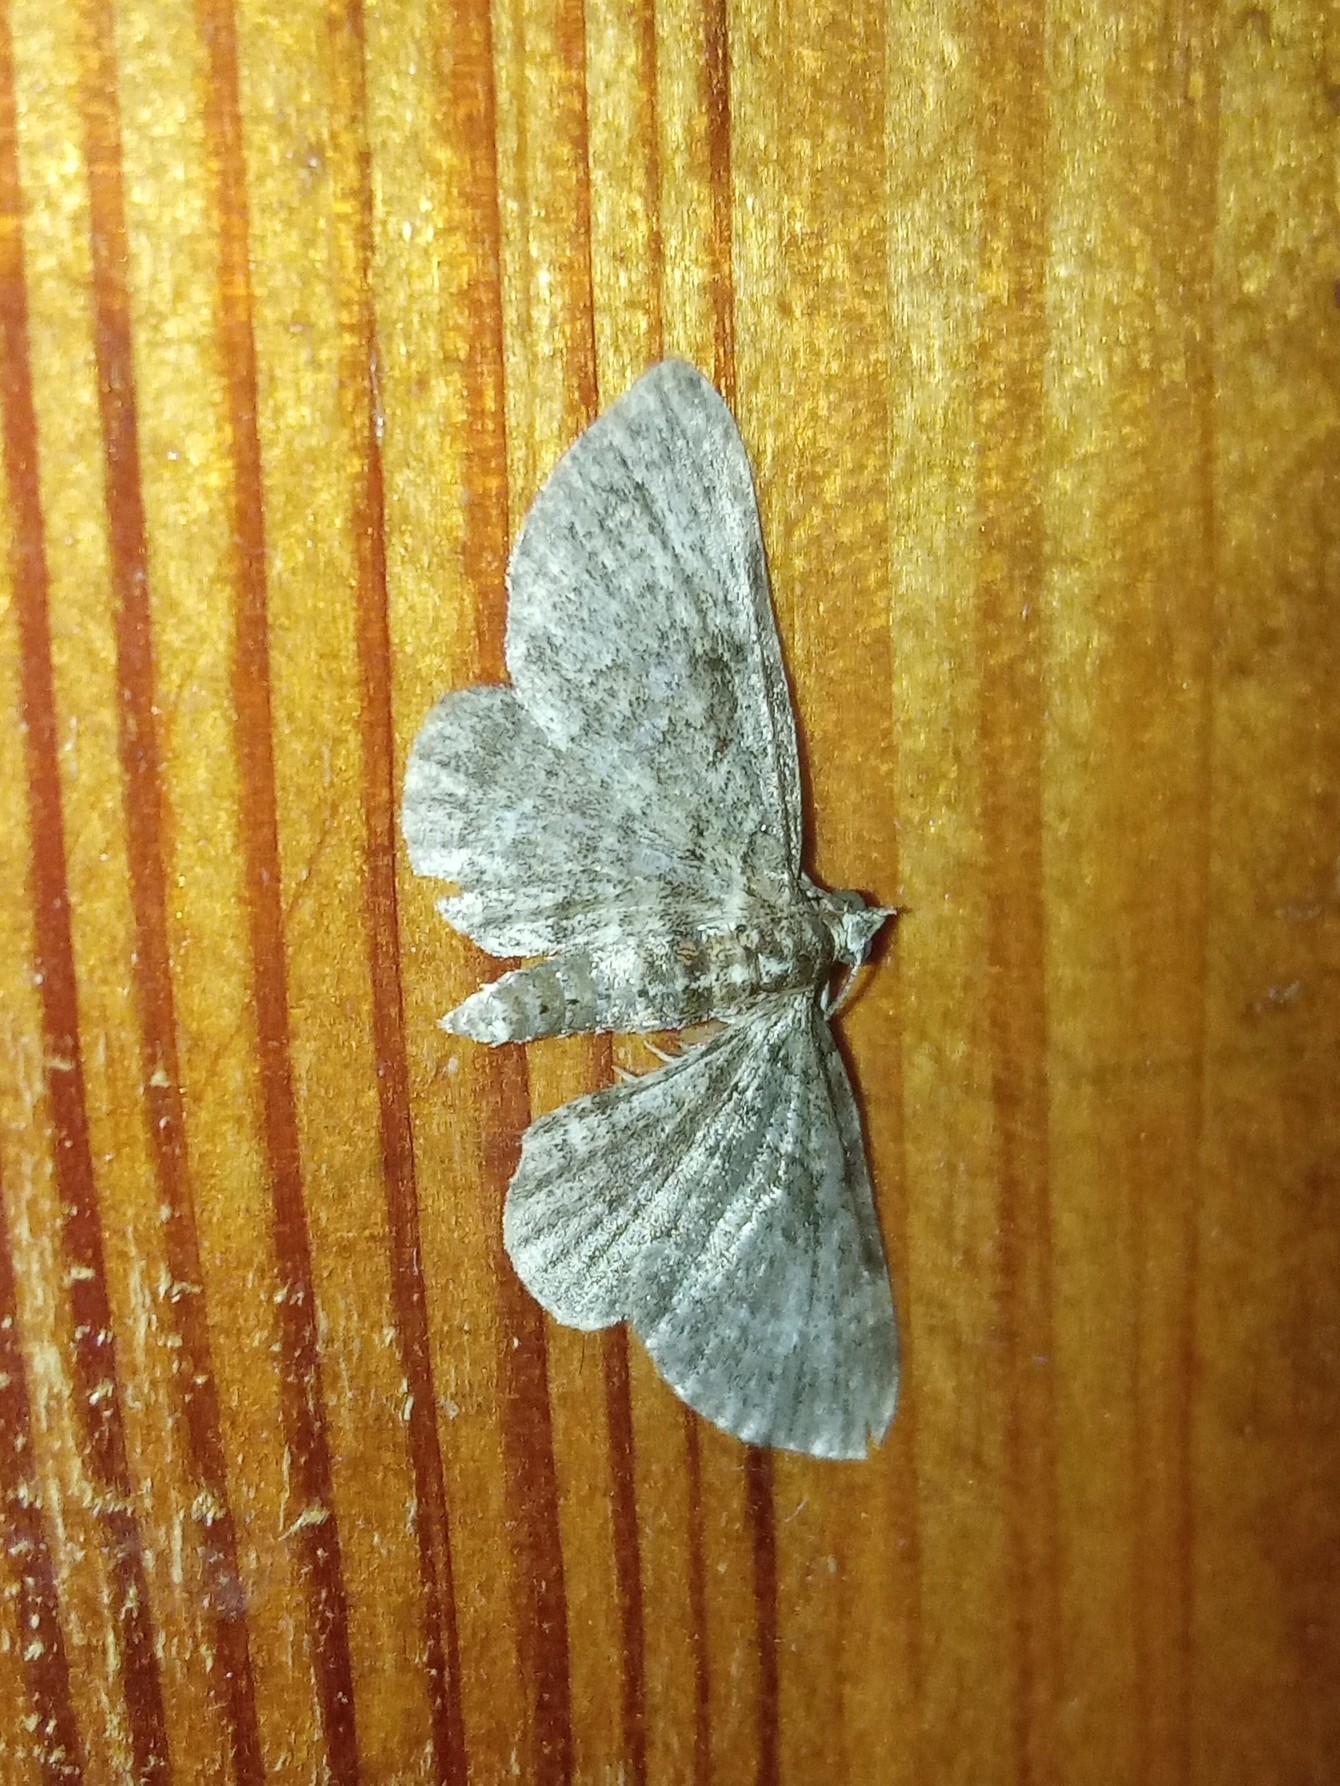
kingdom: Animalia
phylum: Arthropoda
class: Insecta
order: Lepidoptera
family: Geometridae
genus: Pasiphila
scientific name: Pasiphila
